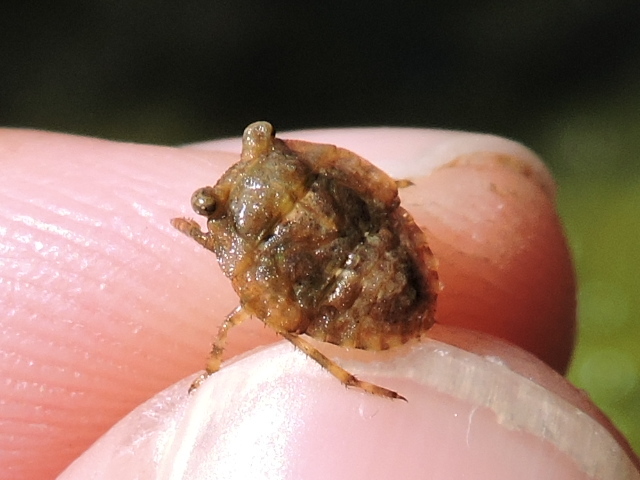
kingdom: Animalia
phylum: Arthropoda
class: Insecta
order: Hemiptera
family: Gelastocoridae
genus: Gelastocoris
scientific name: Gelastocoris oculatus
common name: Toad bug
